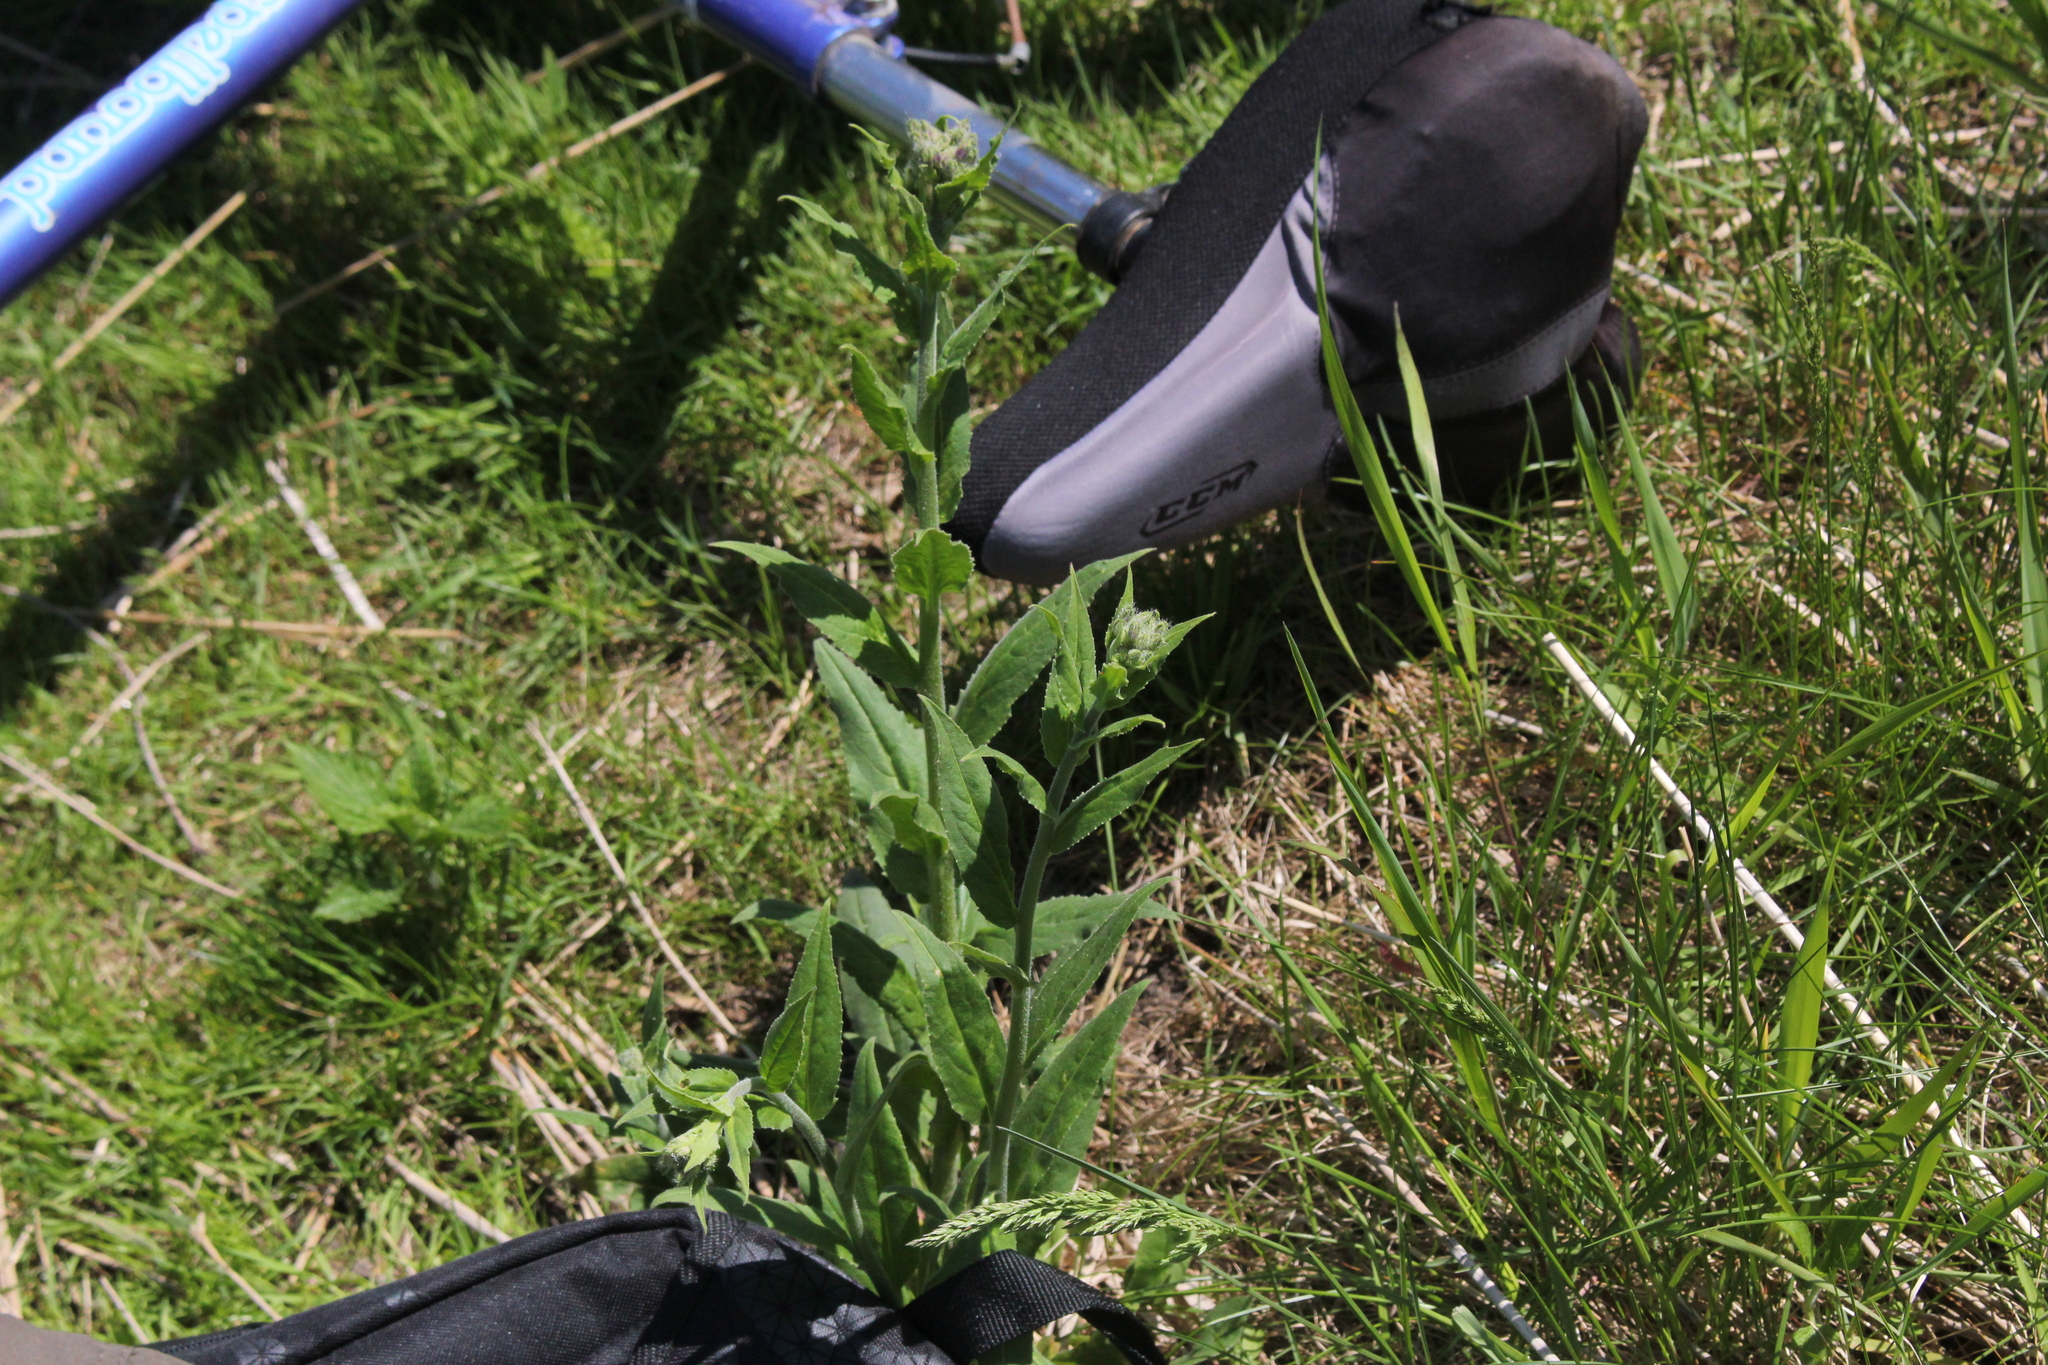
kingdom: Plantae
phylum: Tracheophyta
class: Magnoliopsida
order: Brassicales
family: Brassicaceae
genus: Hesperis
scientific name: Hesperis matronalis
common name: Dame's-violet
